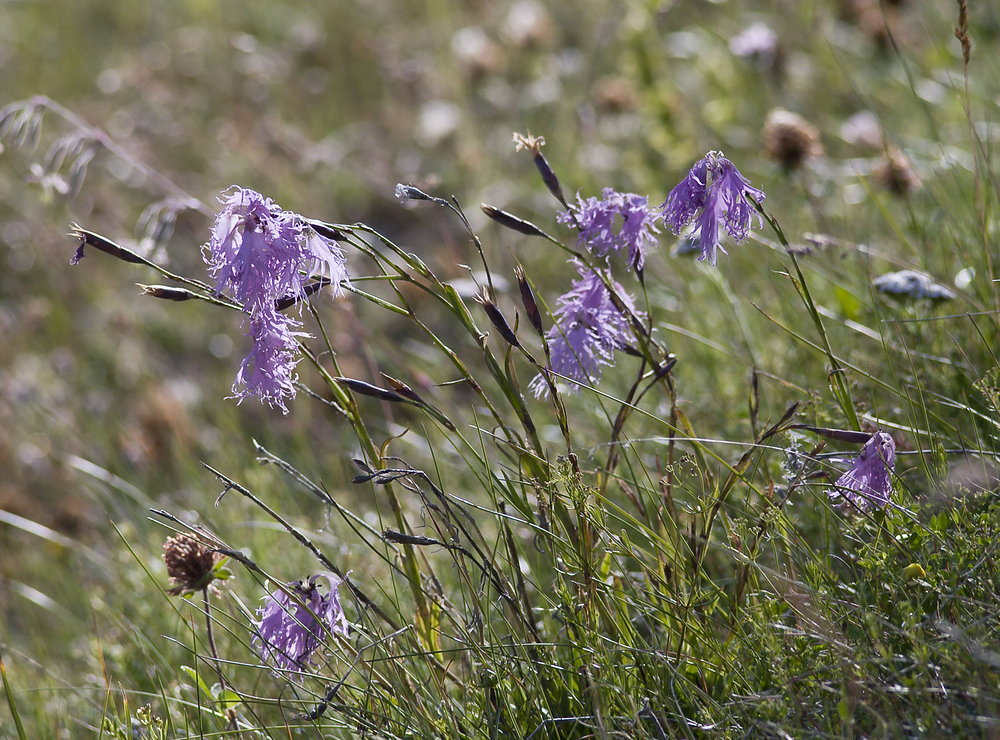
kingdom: Plantae
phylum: Tracheophyta
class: Magnoliopsida
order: Caryophyllales
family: Caryophyllaceae
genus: Dianthus
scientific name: Dianthus superbus
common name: Fringed pink
